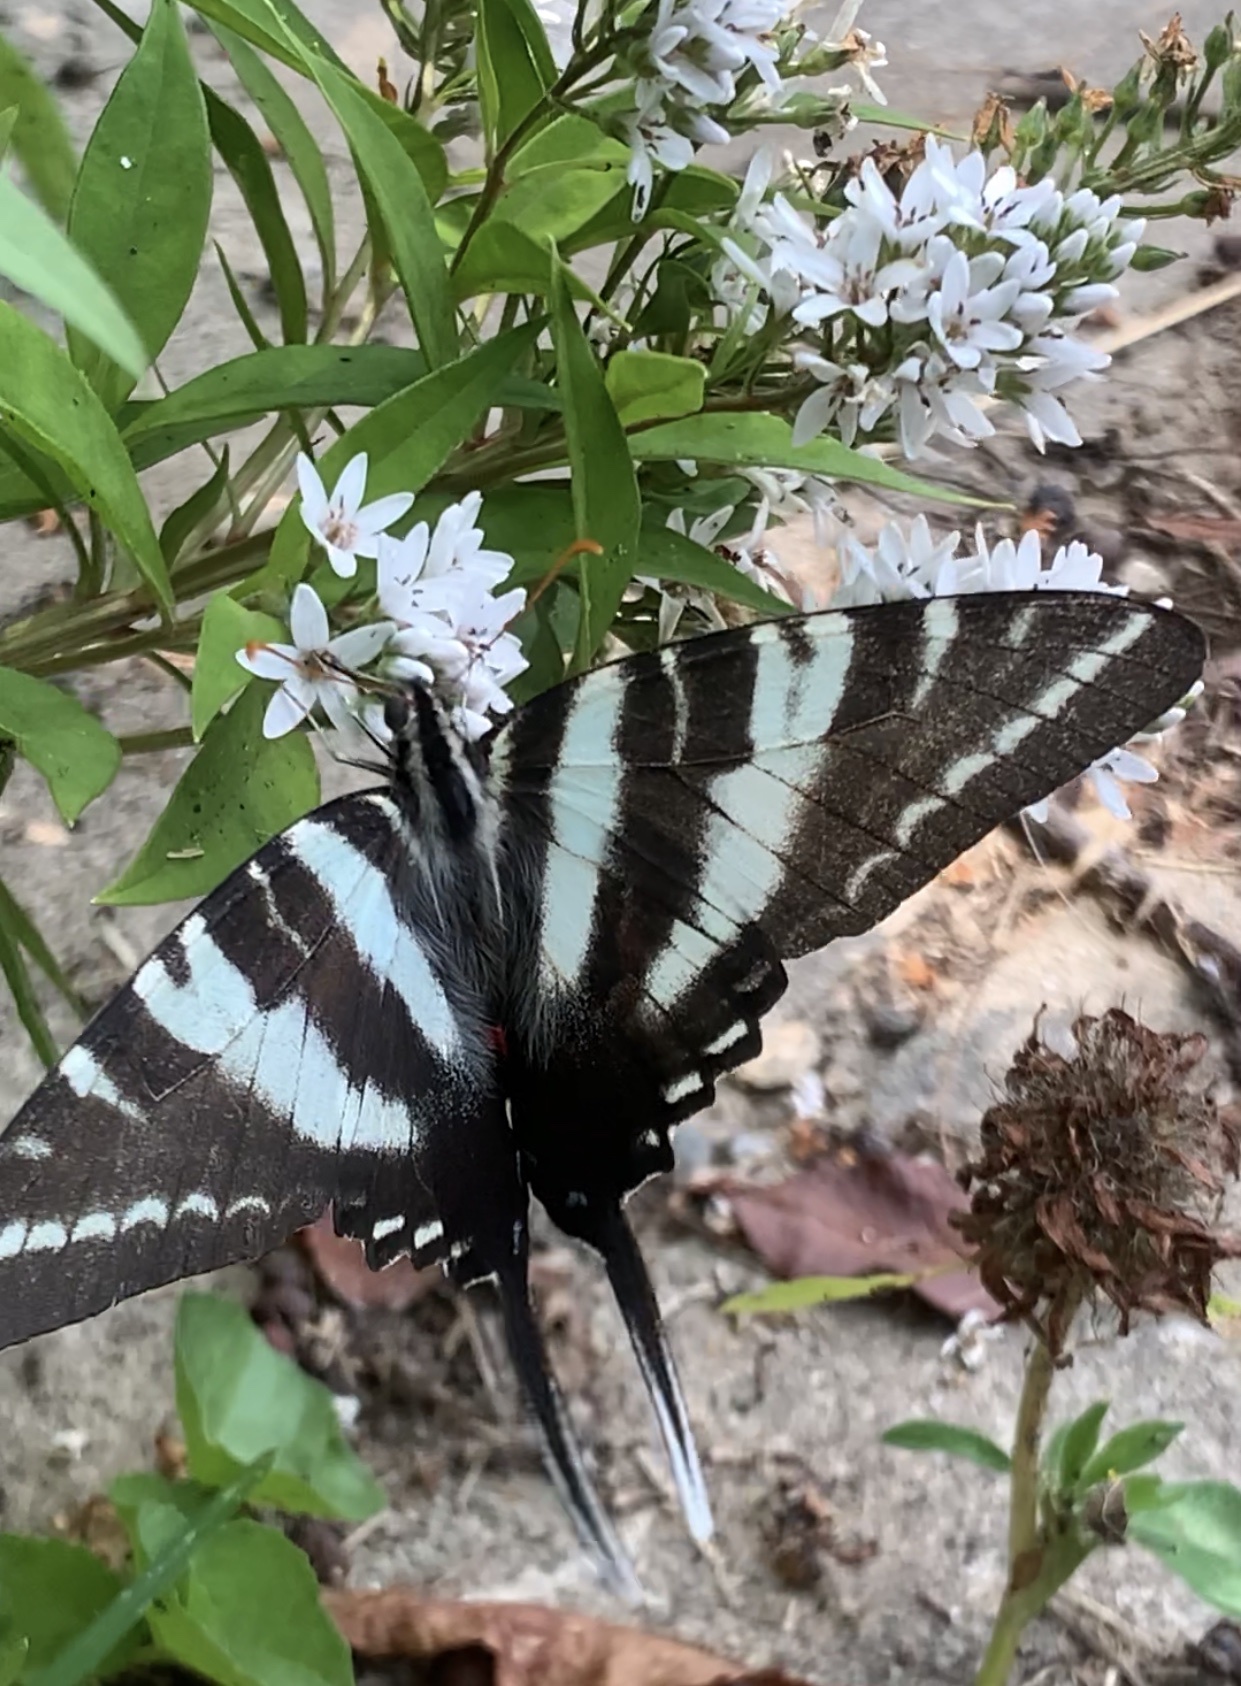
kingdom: Animalia
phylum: Arthropoda
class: Insecta
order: Lepidoptera
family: Papilionidae
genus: Protographium
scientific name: Protographium marcellus
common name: Zebra swallowtail
